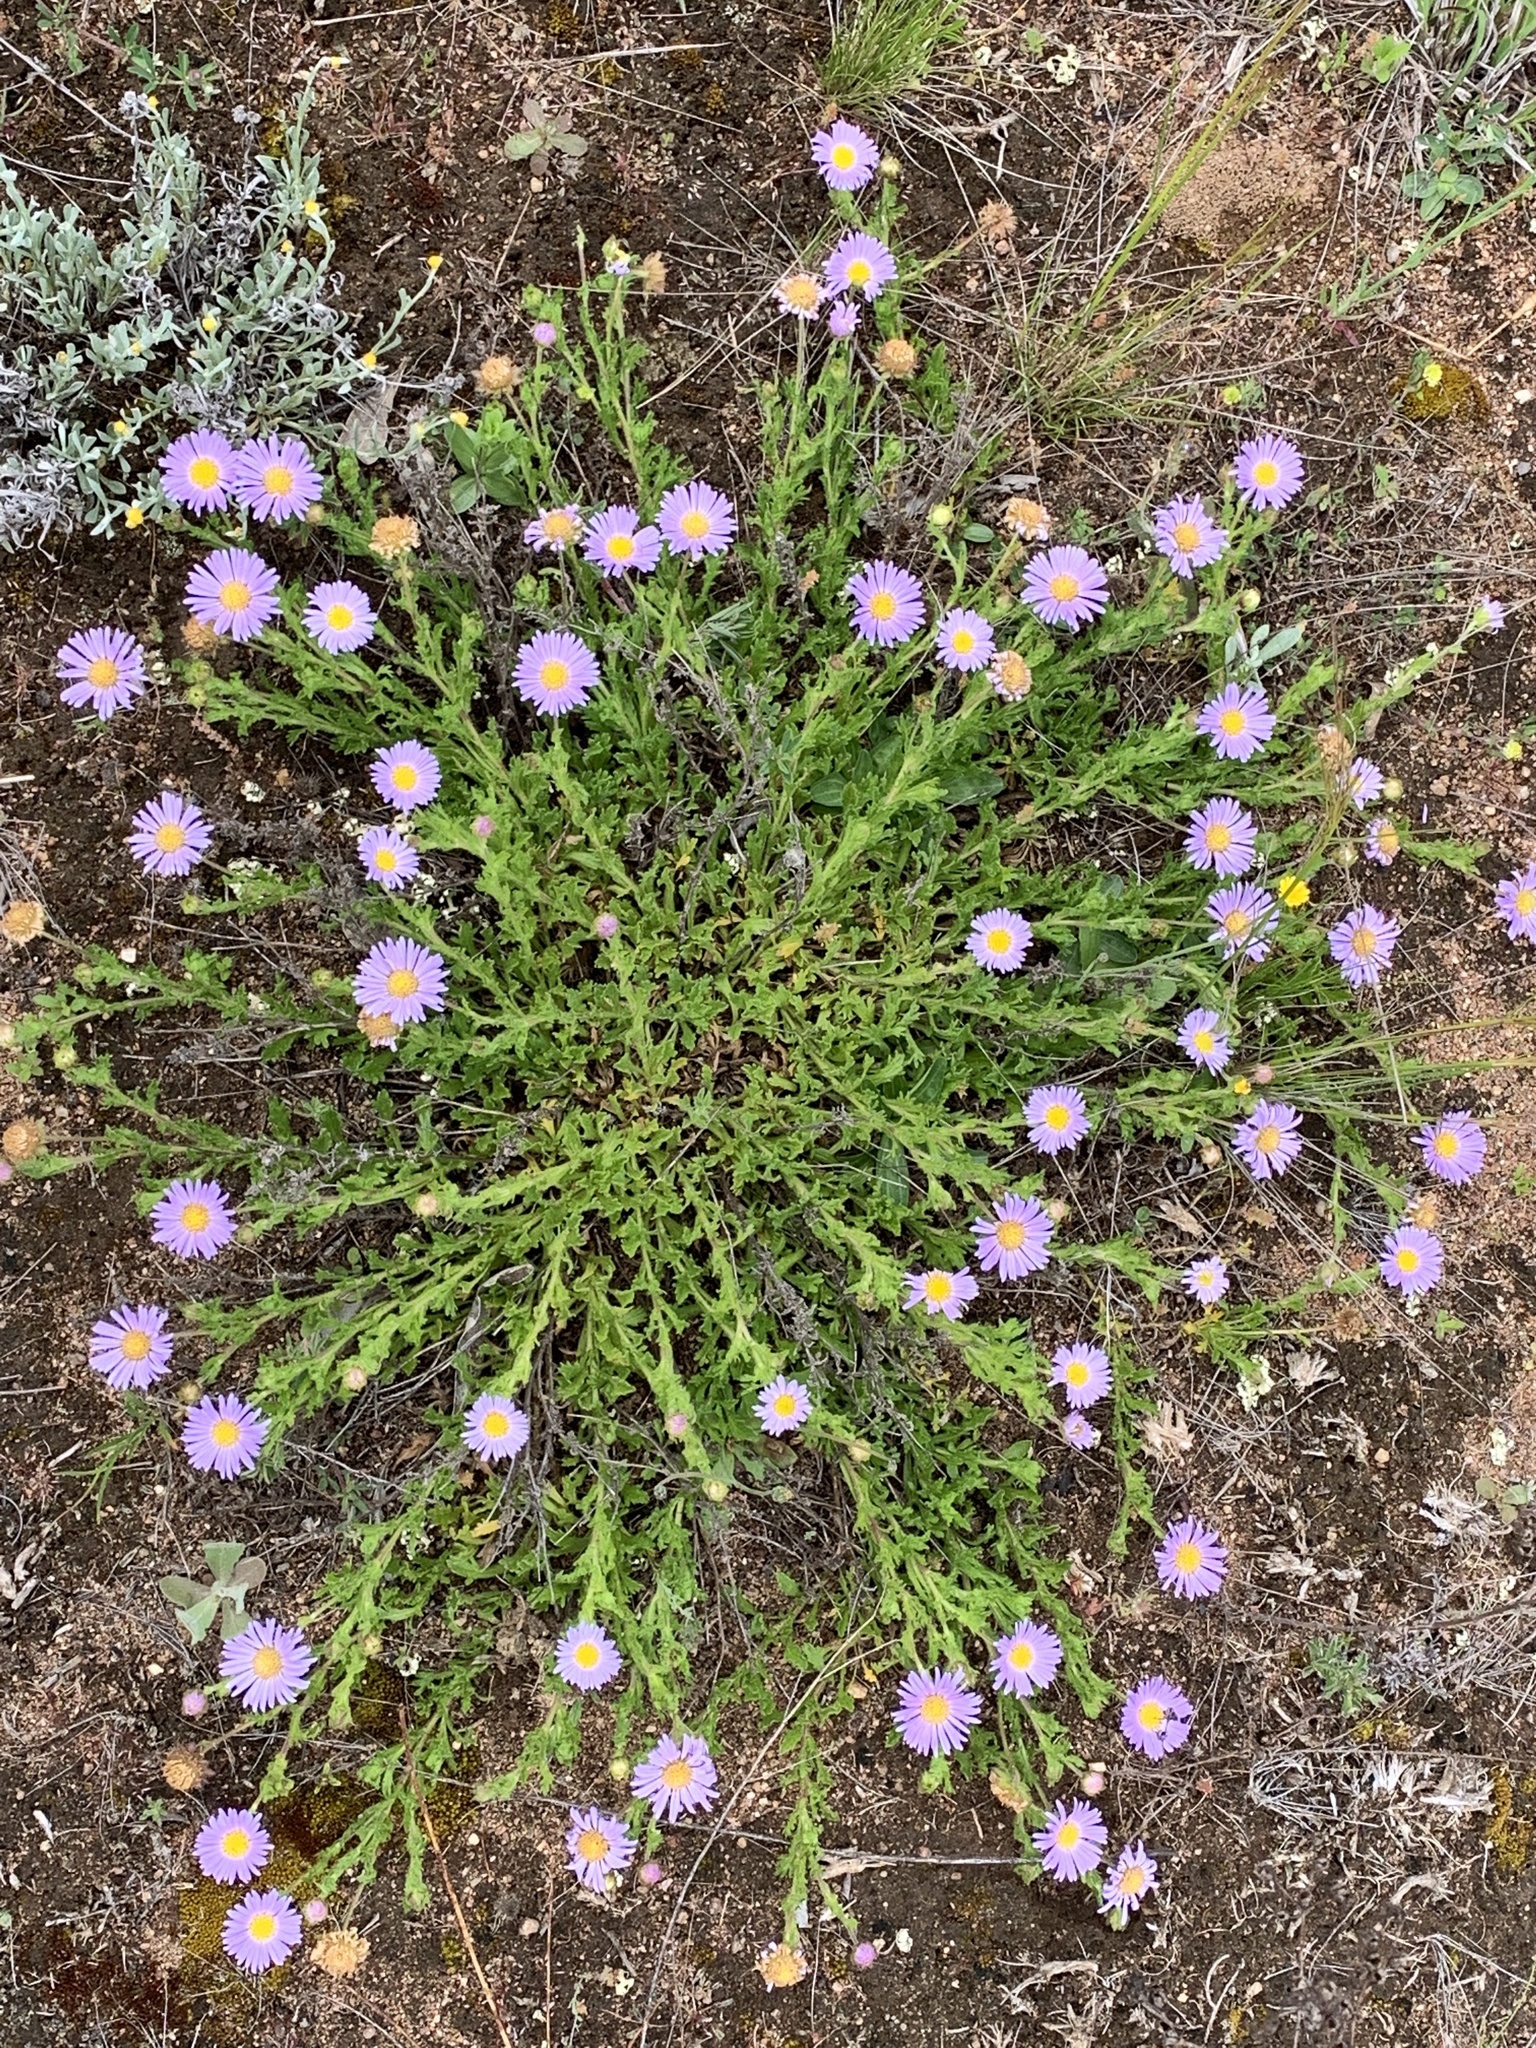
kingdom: Plantae
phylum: Tracheophyta
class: Magnoliopsida
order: Asterales
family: Asteraceae
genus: Calotis
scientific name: Calotis glandulosa
